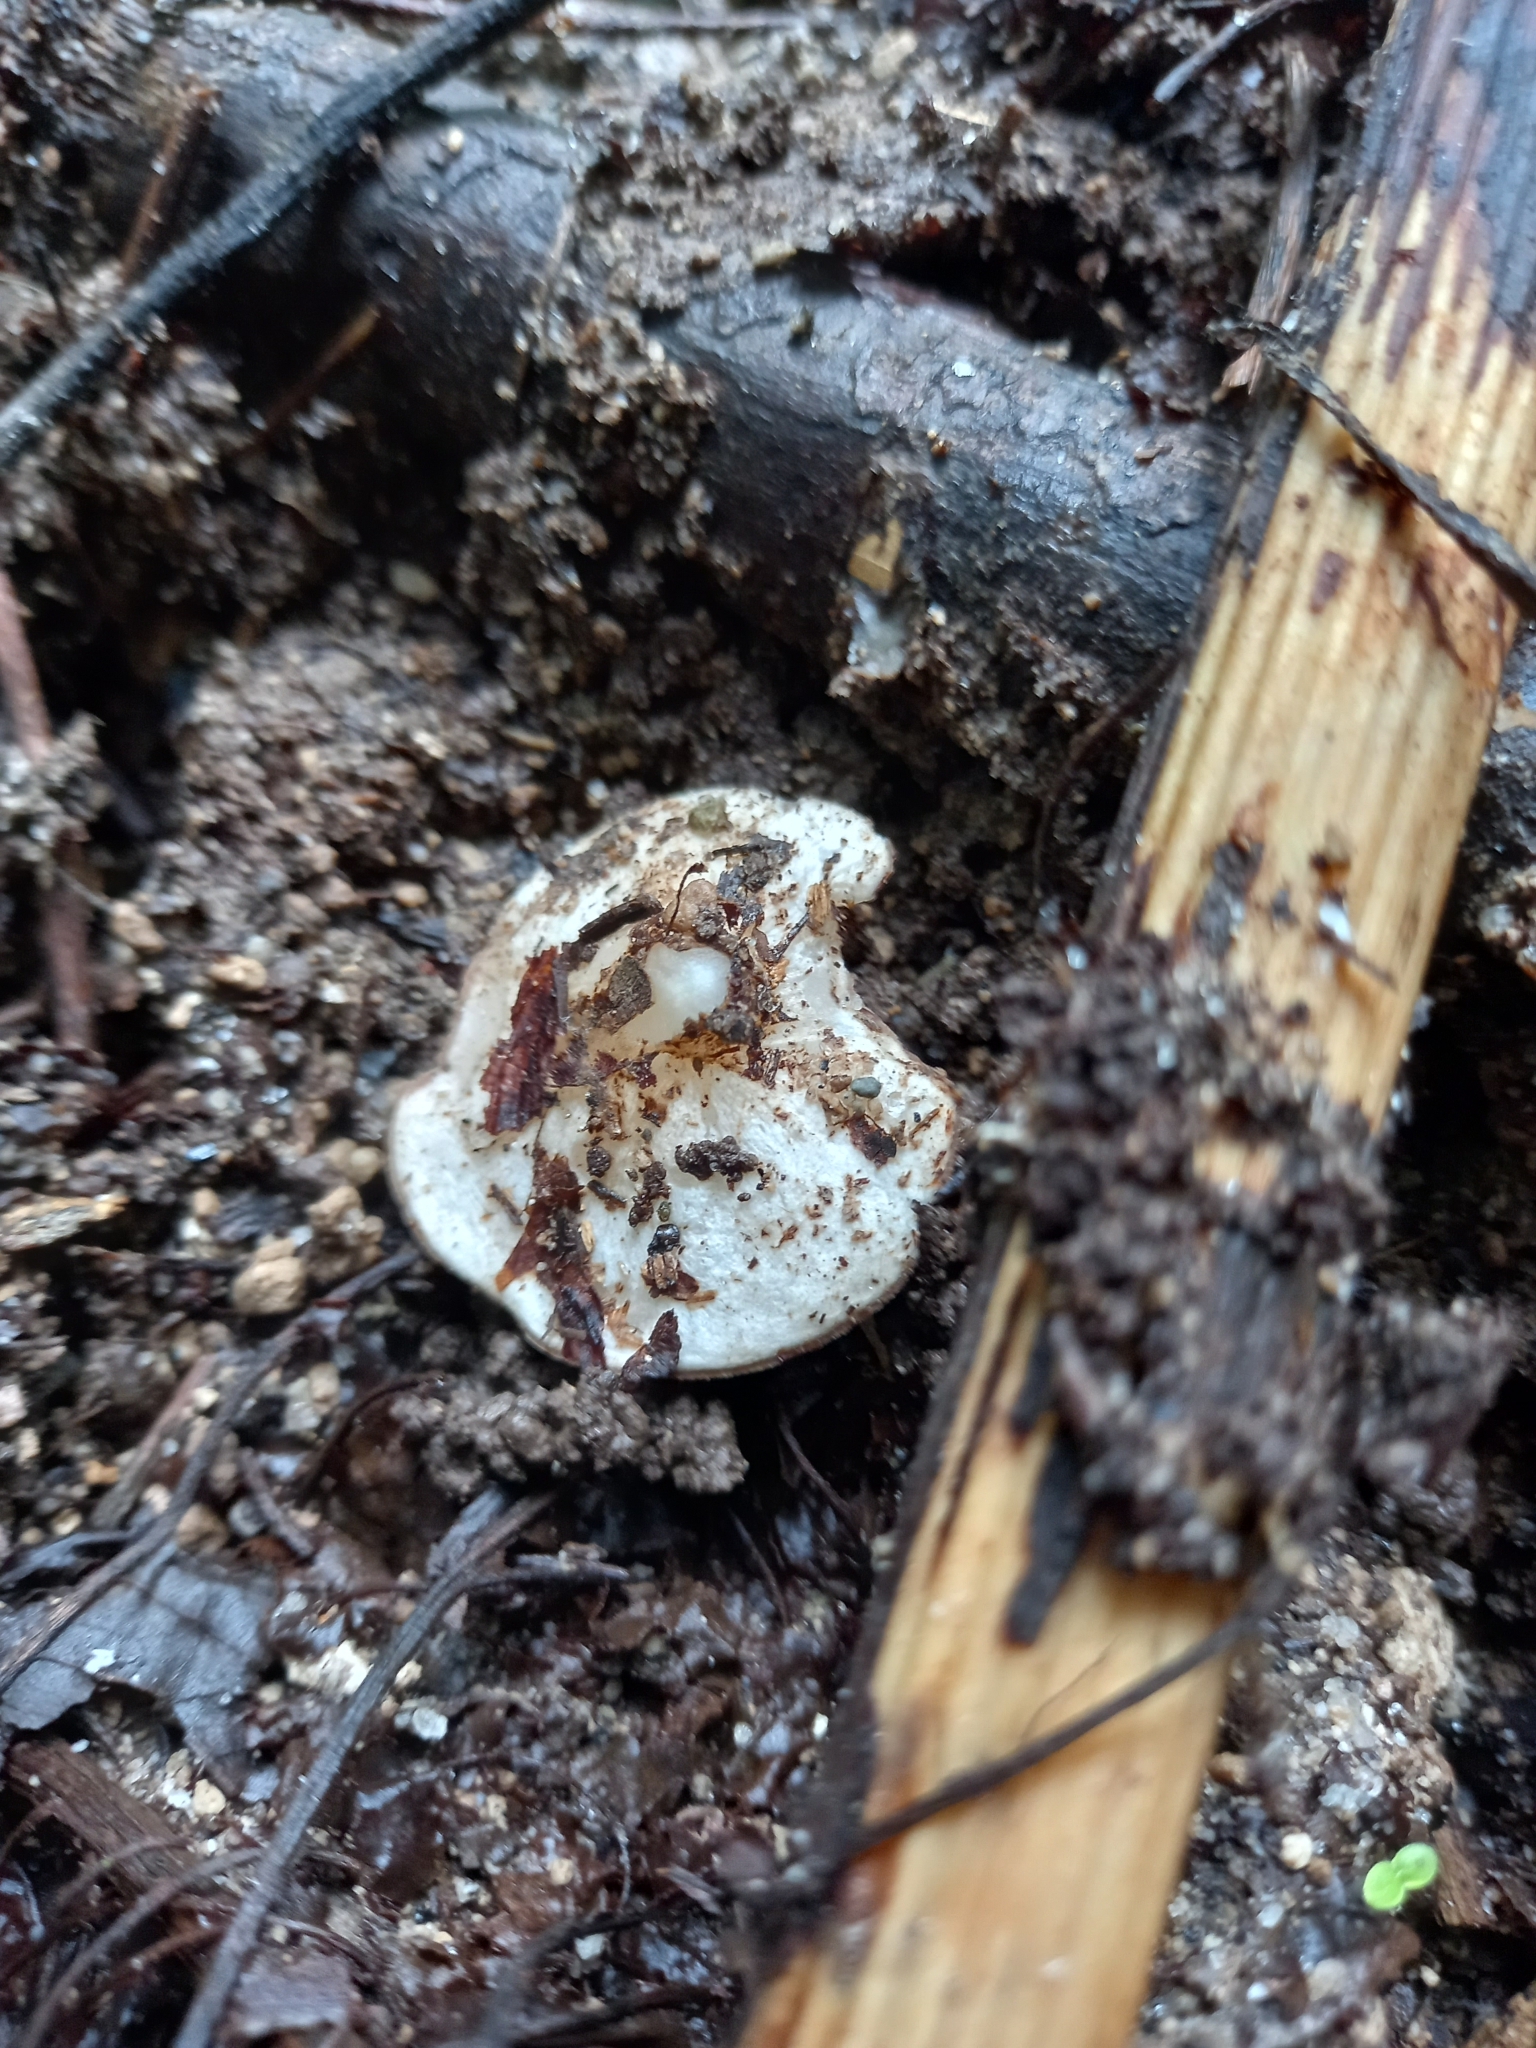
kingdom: Fungi
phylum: Ascomycota
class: Pezizomycetes
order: Pezizales
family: Sarcoscyphaceae
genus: Phillipsia
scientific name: Phillipsia domingensis
